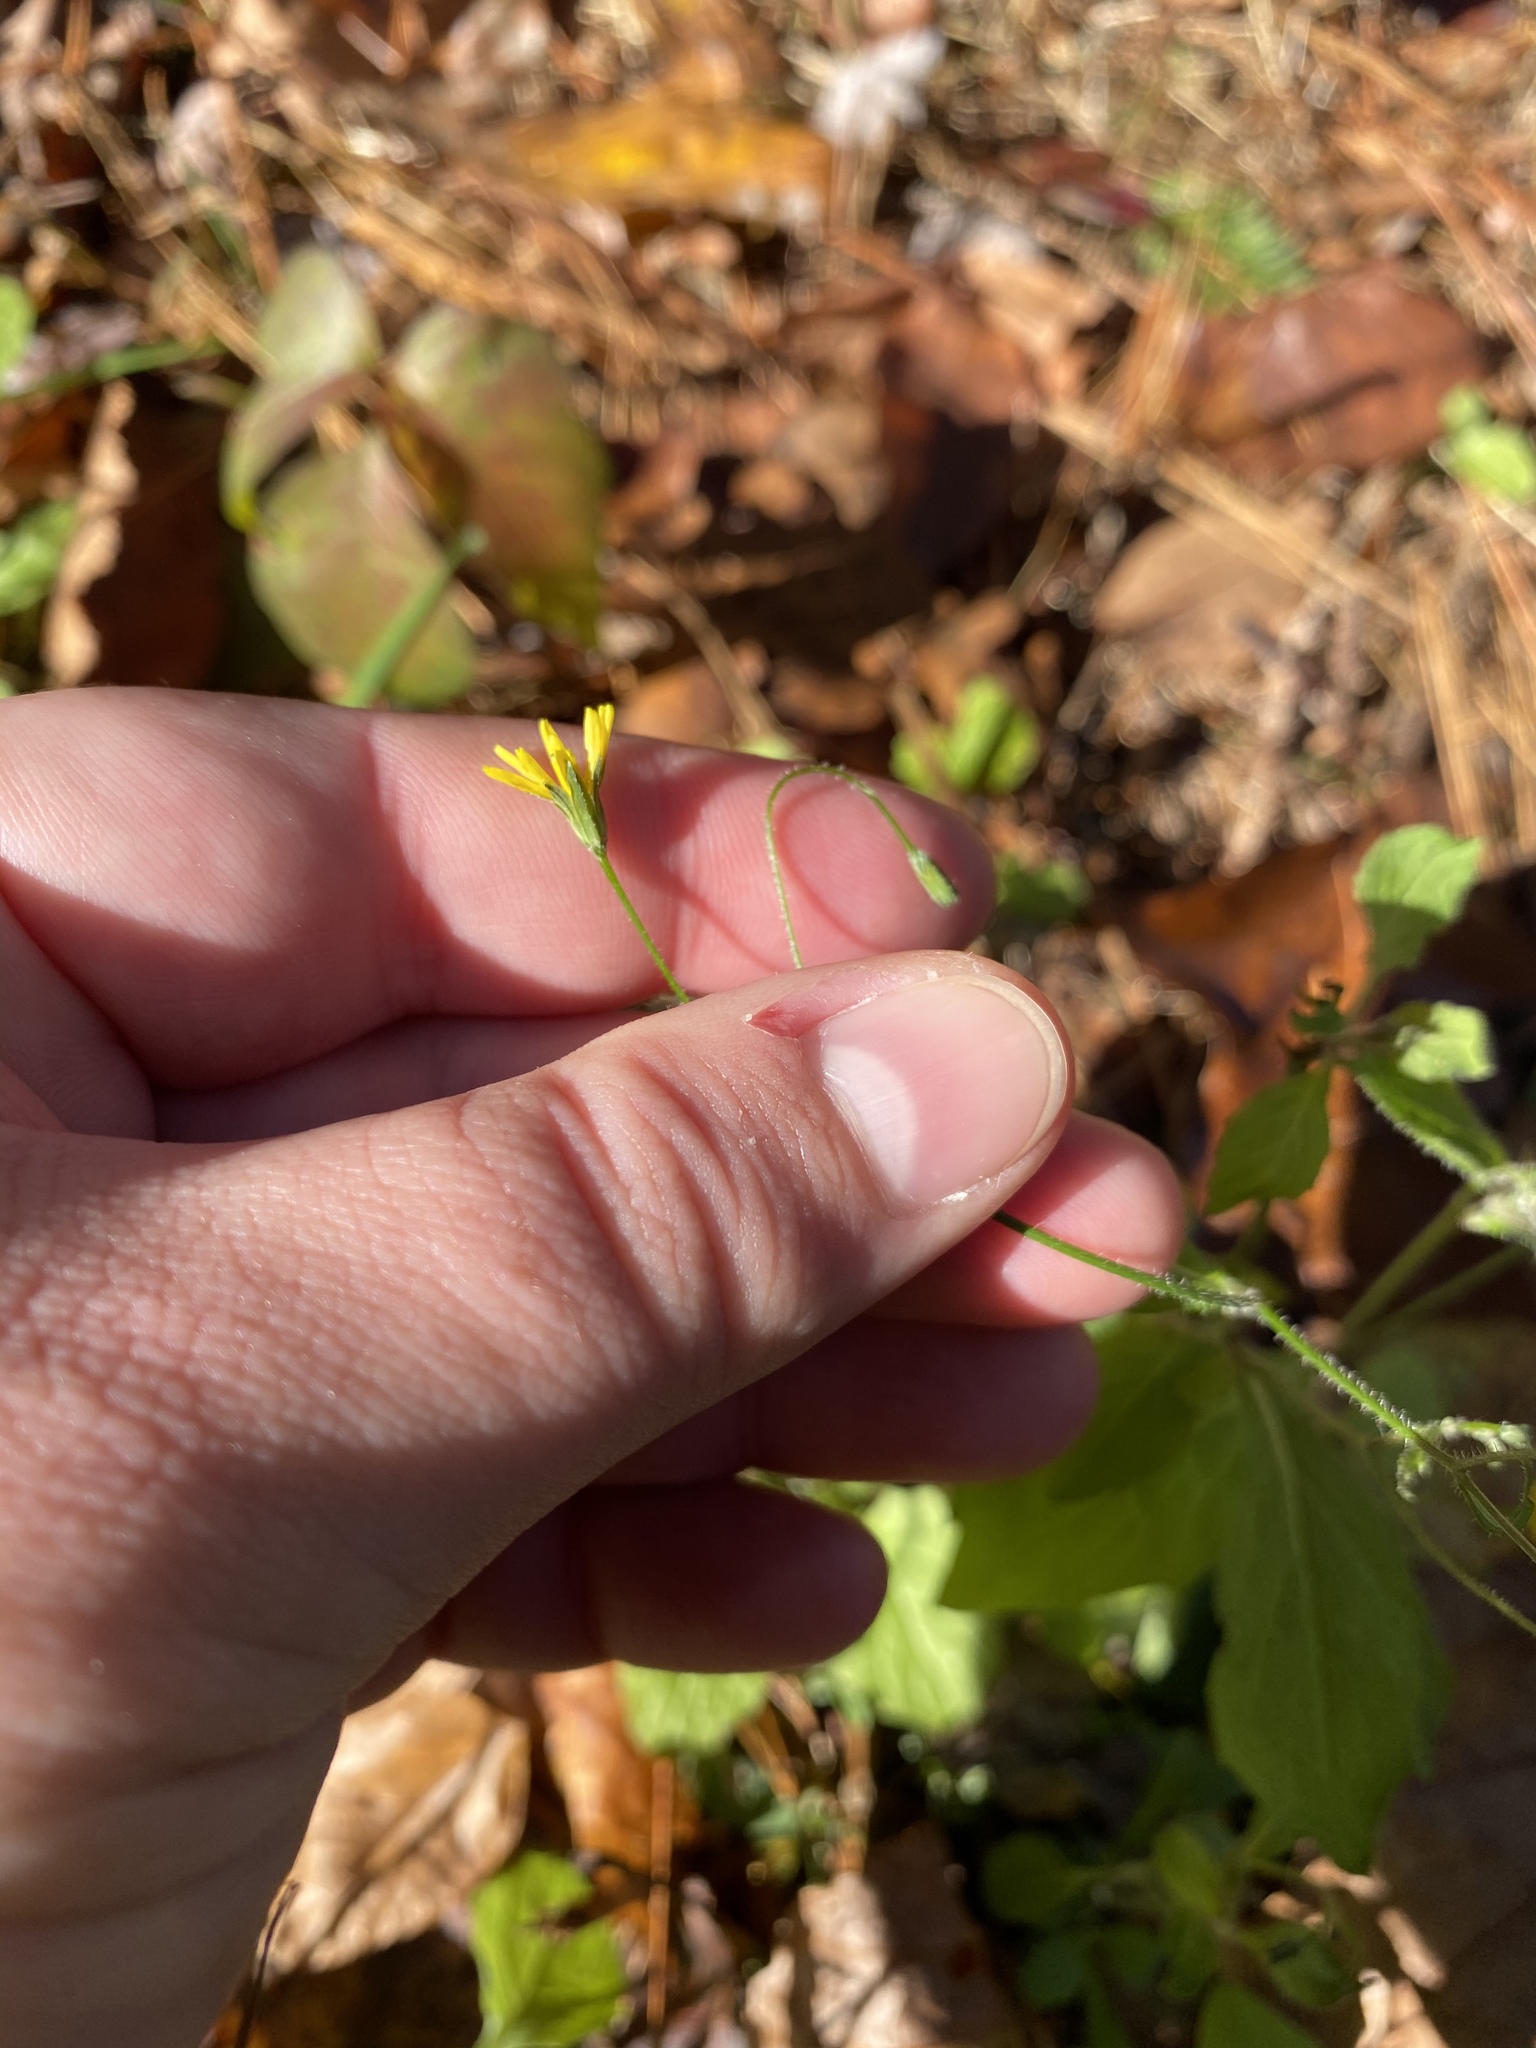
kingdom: Plantae
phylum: Tracheophyta
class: Magnoliopsida
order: Asterales
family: Asteraceae
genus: Lapsana
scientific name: Lapsana communis
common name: Nipplewort
